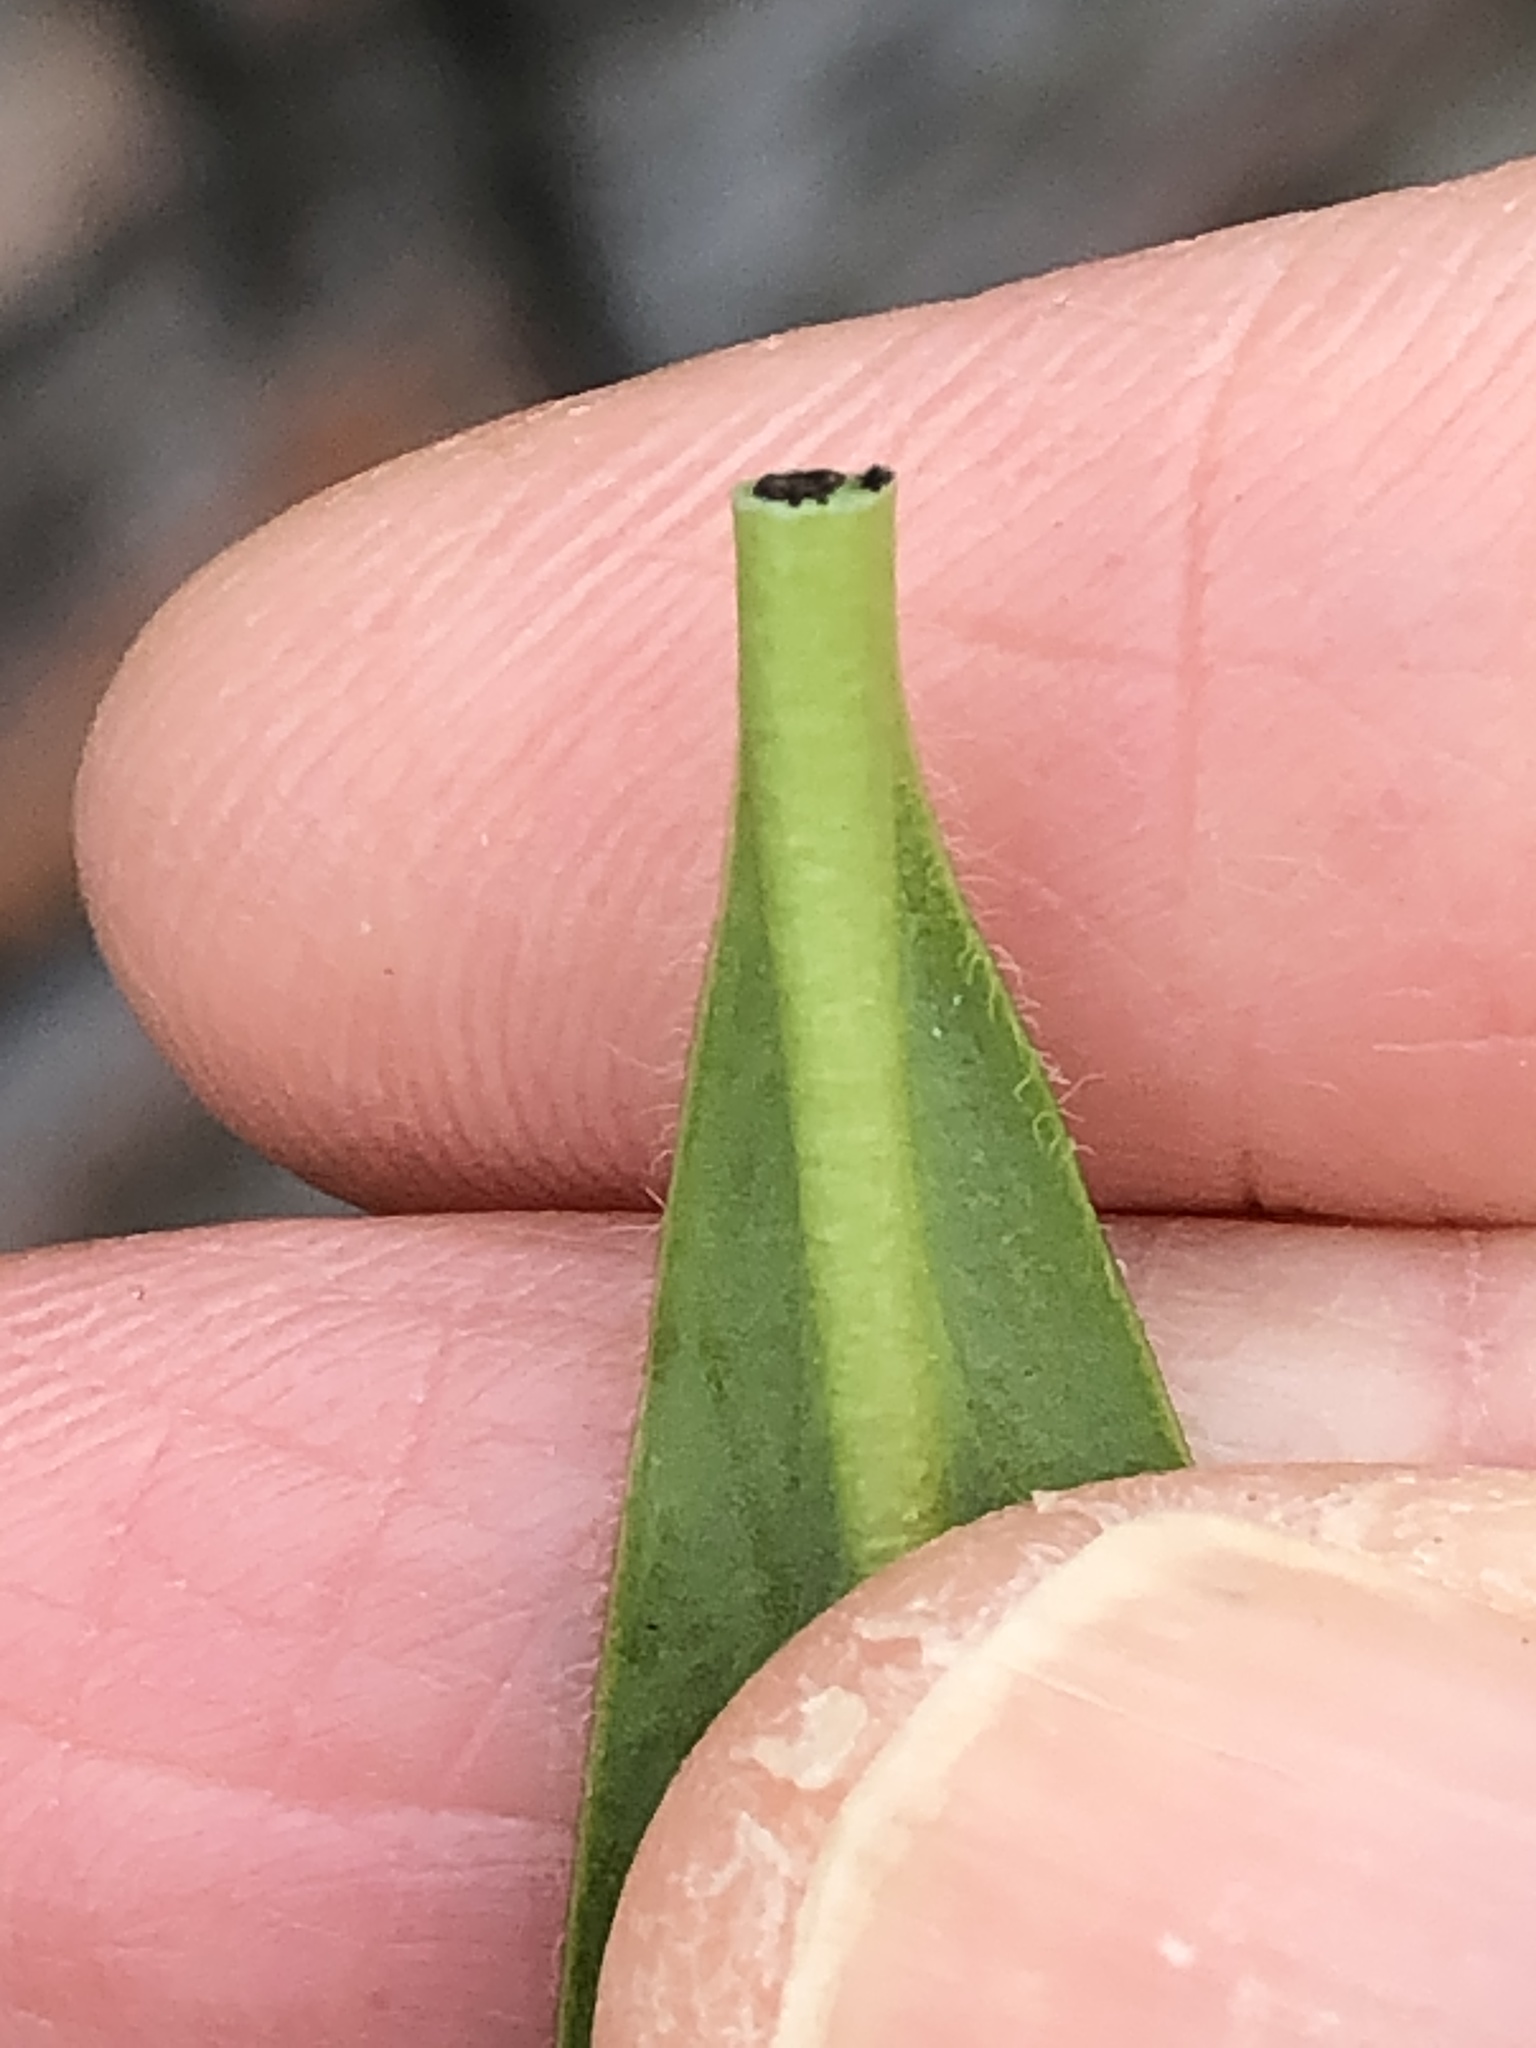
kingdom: Plantae
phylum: Tracheophyta
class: Magnoliopsida
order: Malpighiales
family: Euphorbiaceae
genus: Euphorbia
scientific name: Euphorbia amygdaloides
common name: Wood spurge
